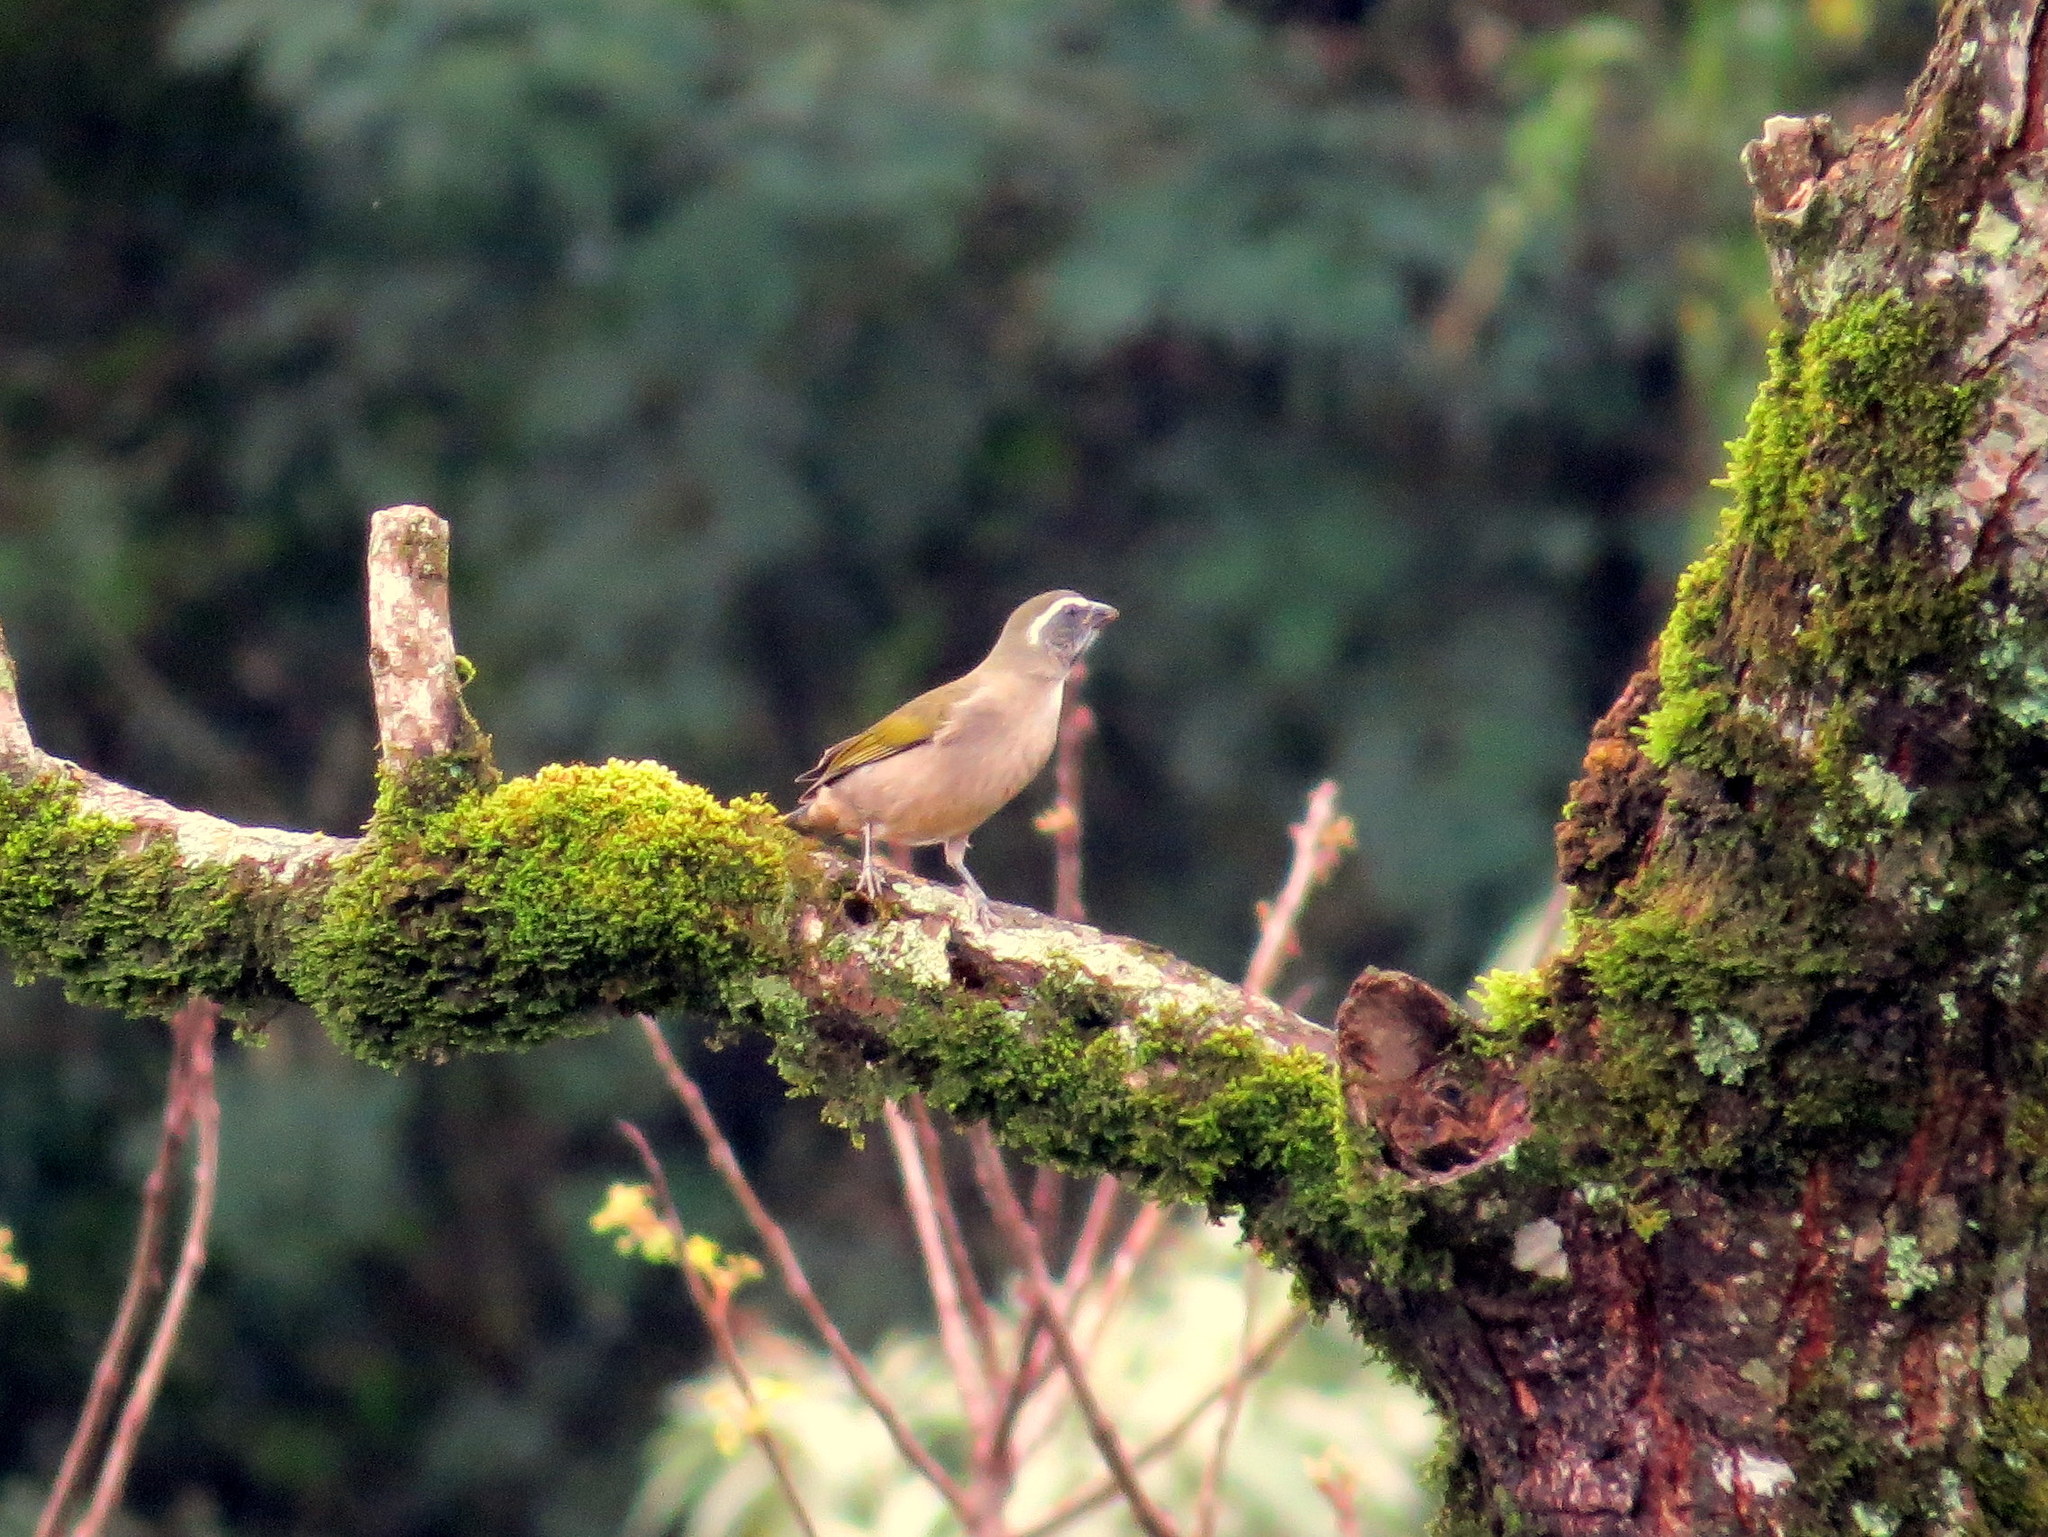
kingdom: Animalia
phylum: Chordata
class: Aves
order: Passeriformes
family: Thraupidae
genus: Saltator
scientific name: Saltator similis
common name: Green-winged saltator
